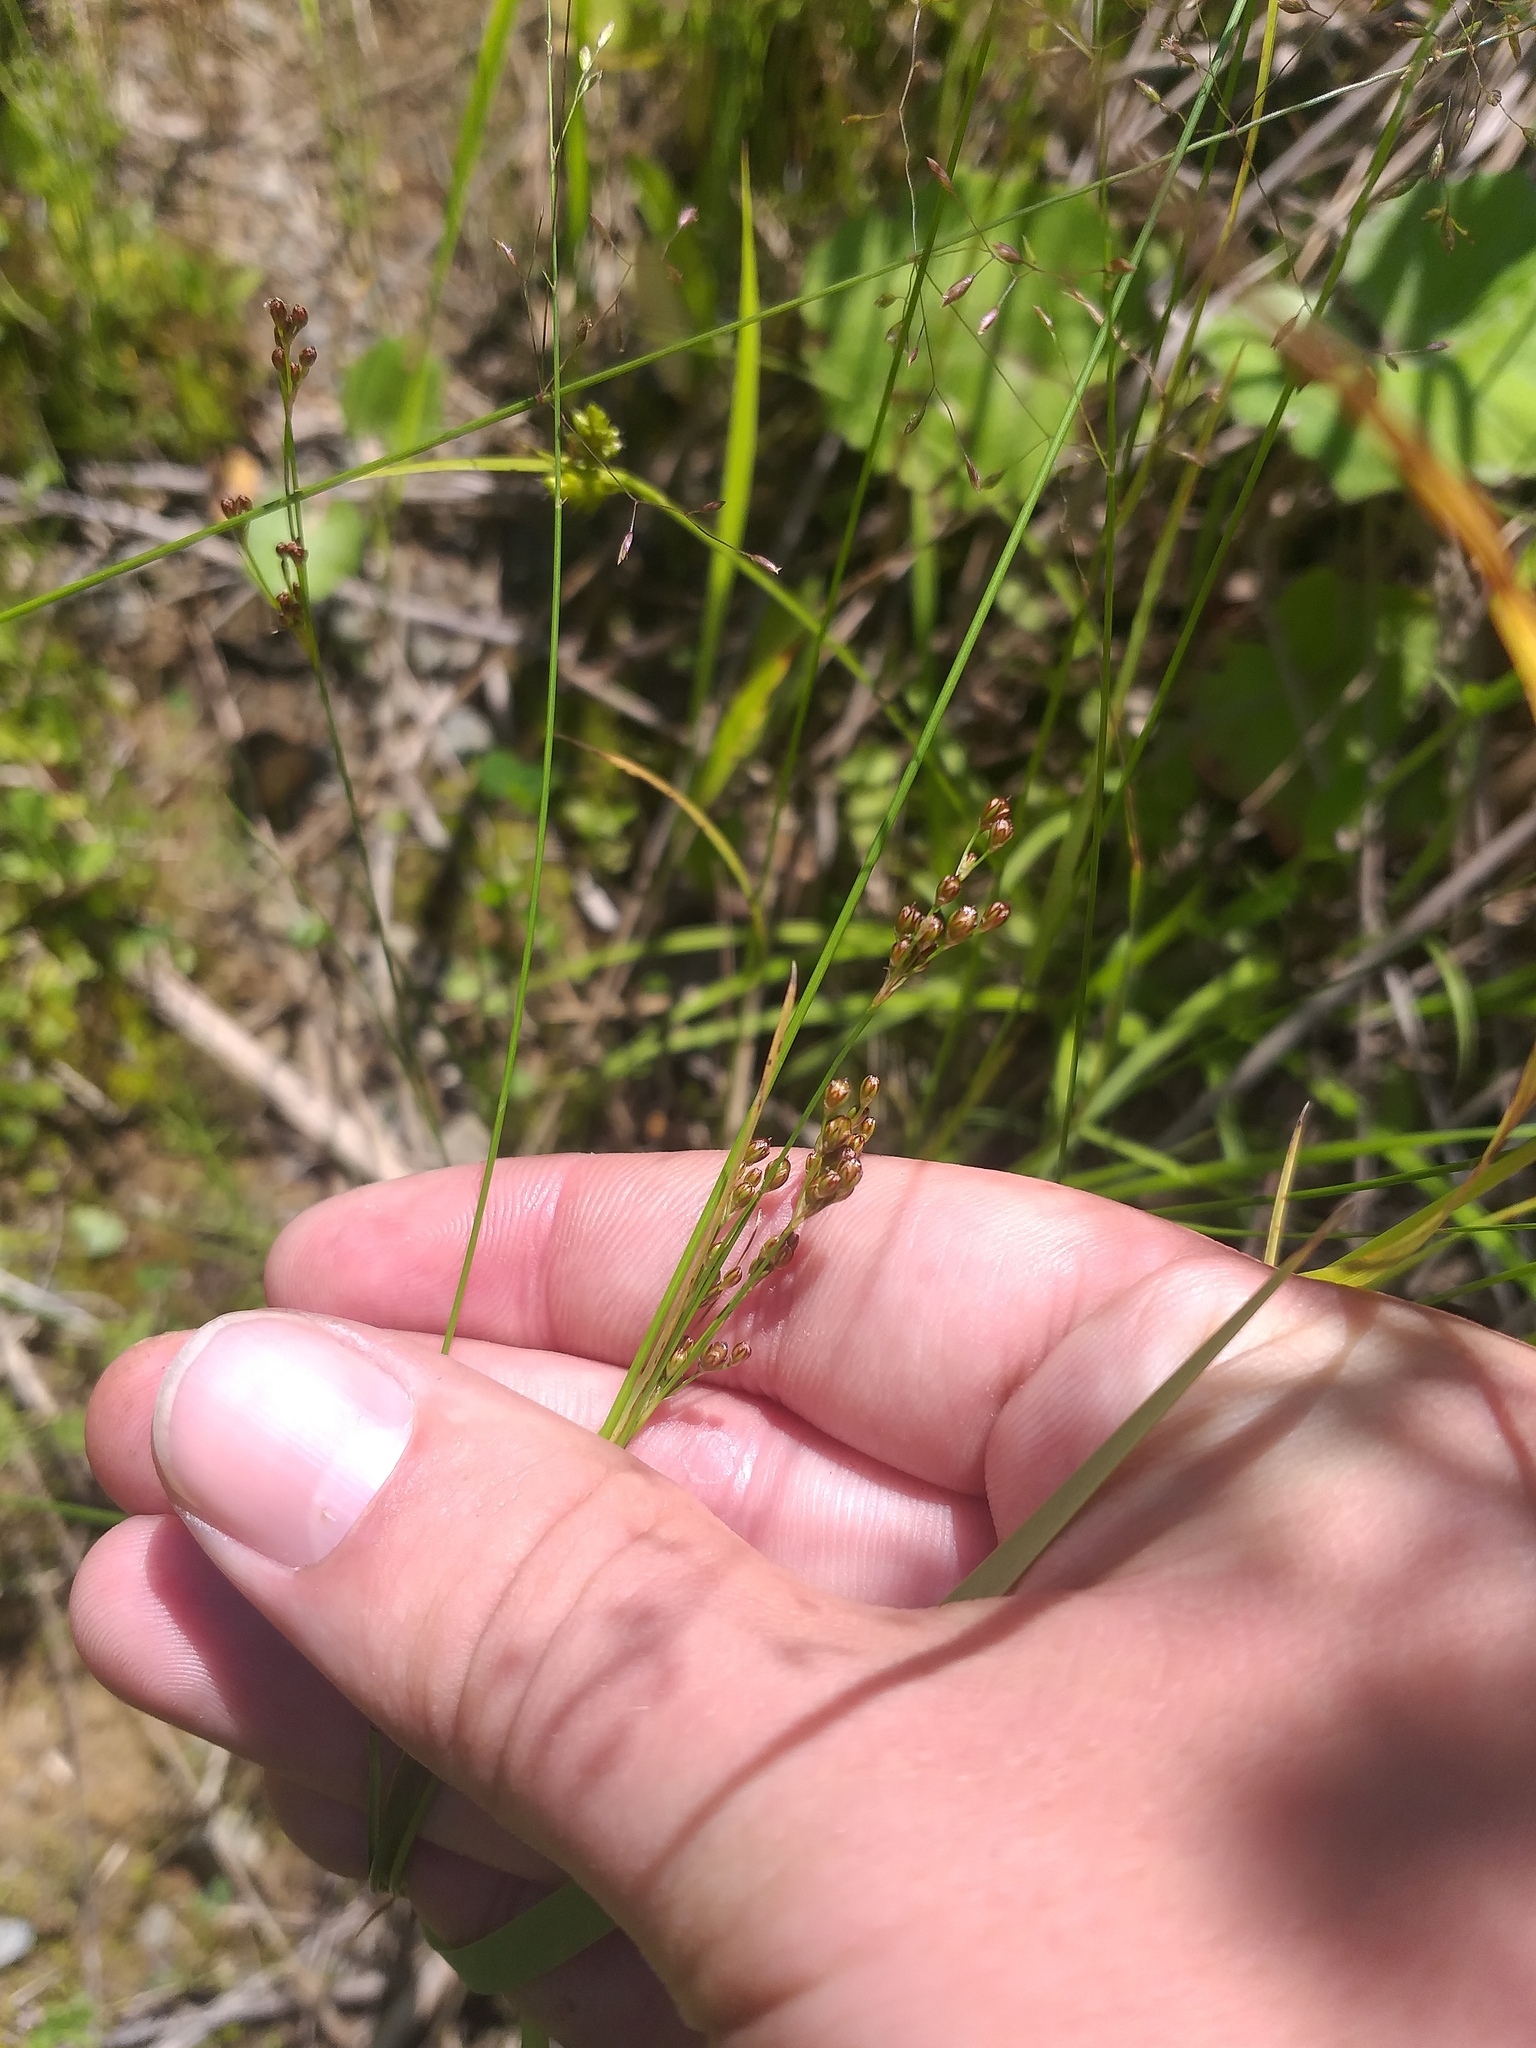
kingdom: Plantae
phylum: Tracheophyta
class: Liliopsida
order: Poales
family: Juncaceae
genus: Juncus
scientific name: Juncus compressus
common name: Round-fruited rush
